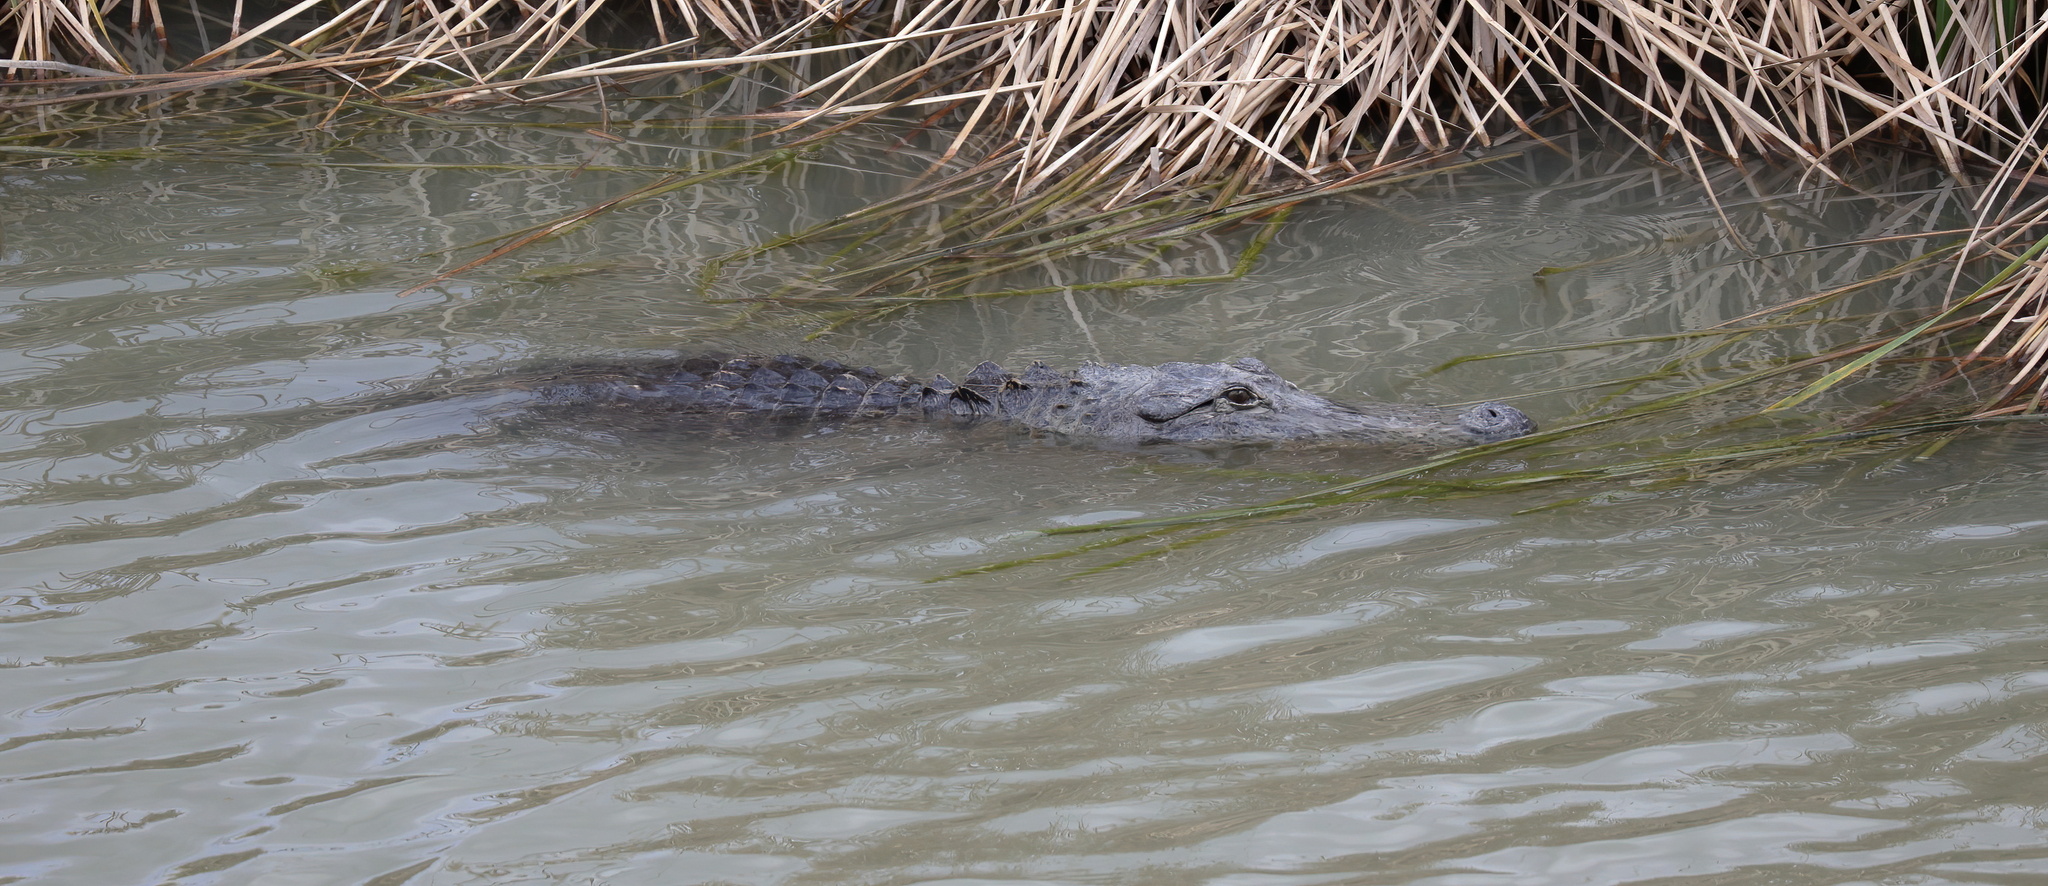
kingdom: Animalia
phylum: Chordata
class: Crocodylia
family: Alligatoridae
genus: Alligator
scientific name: Alligator mississippiensis
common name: American alligator
